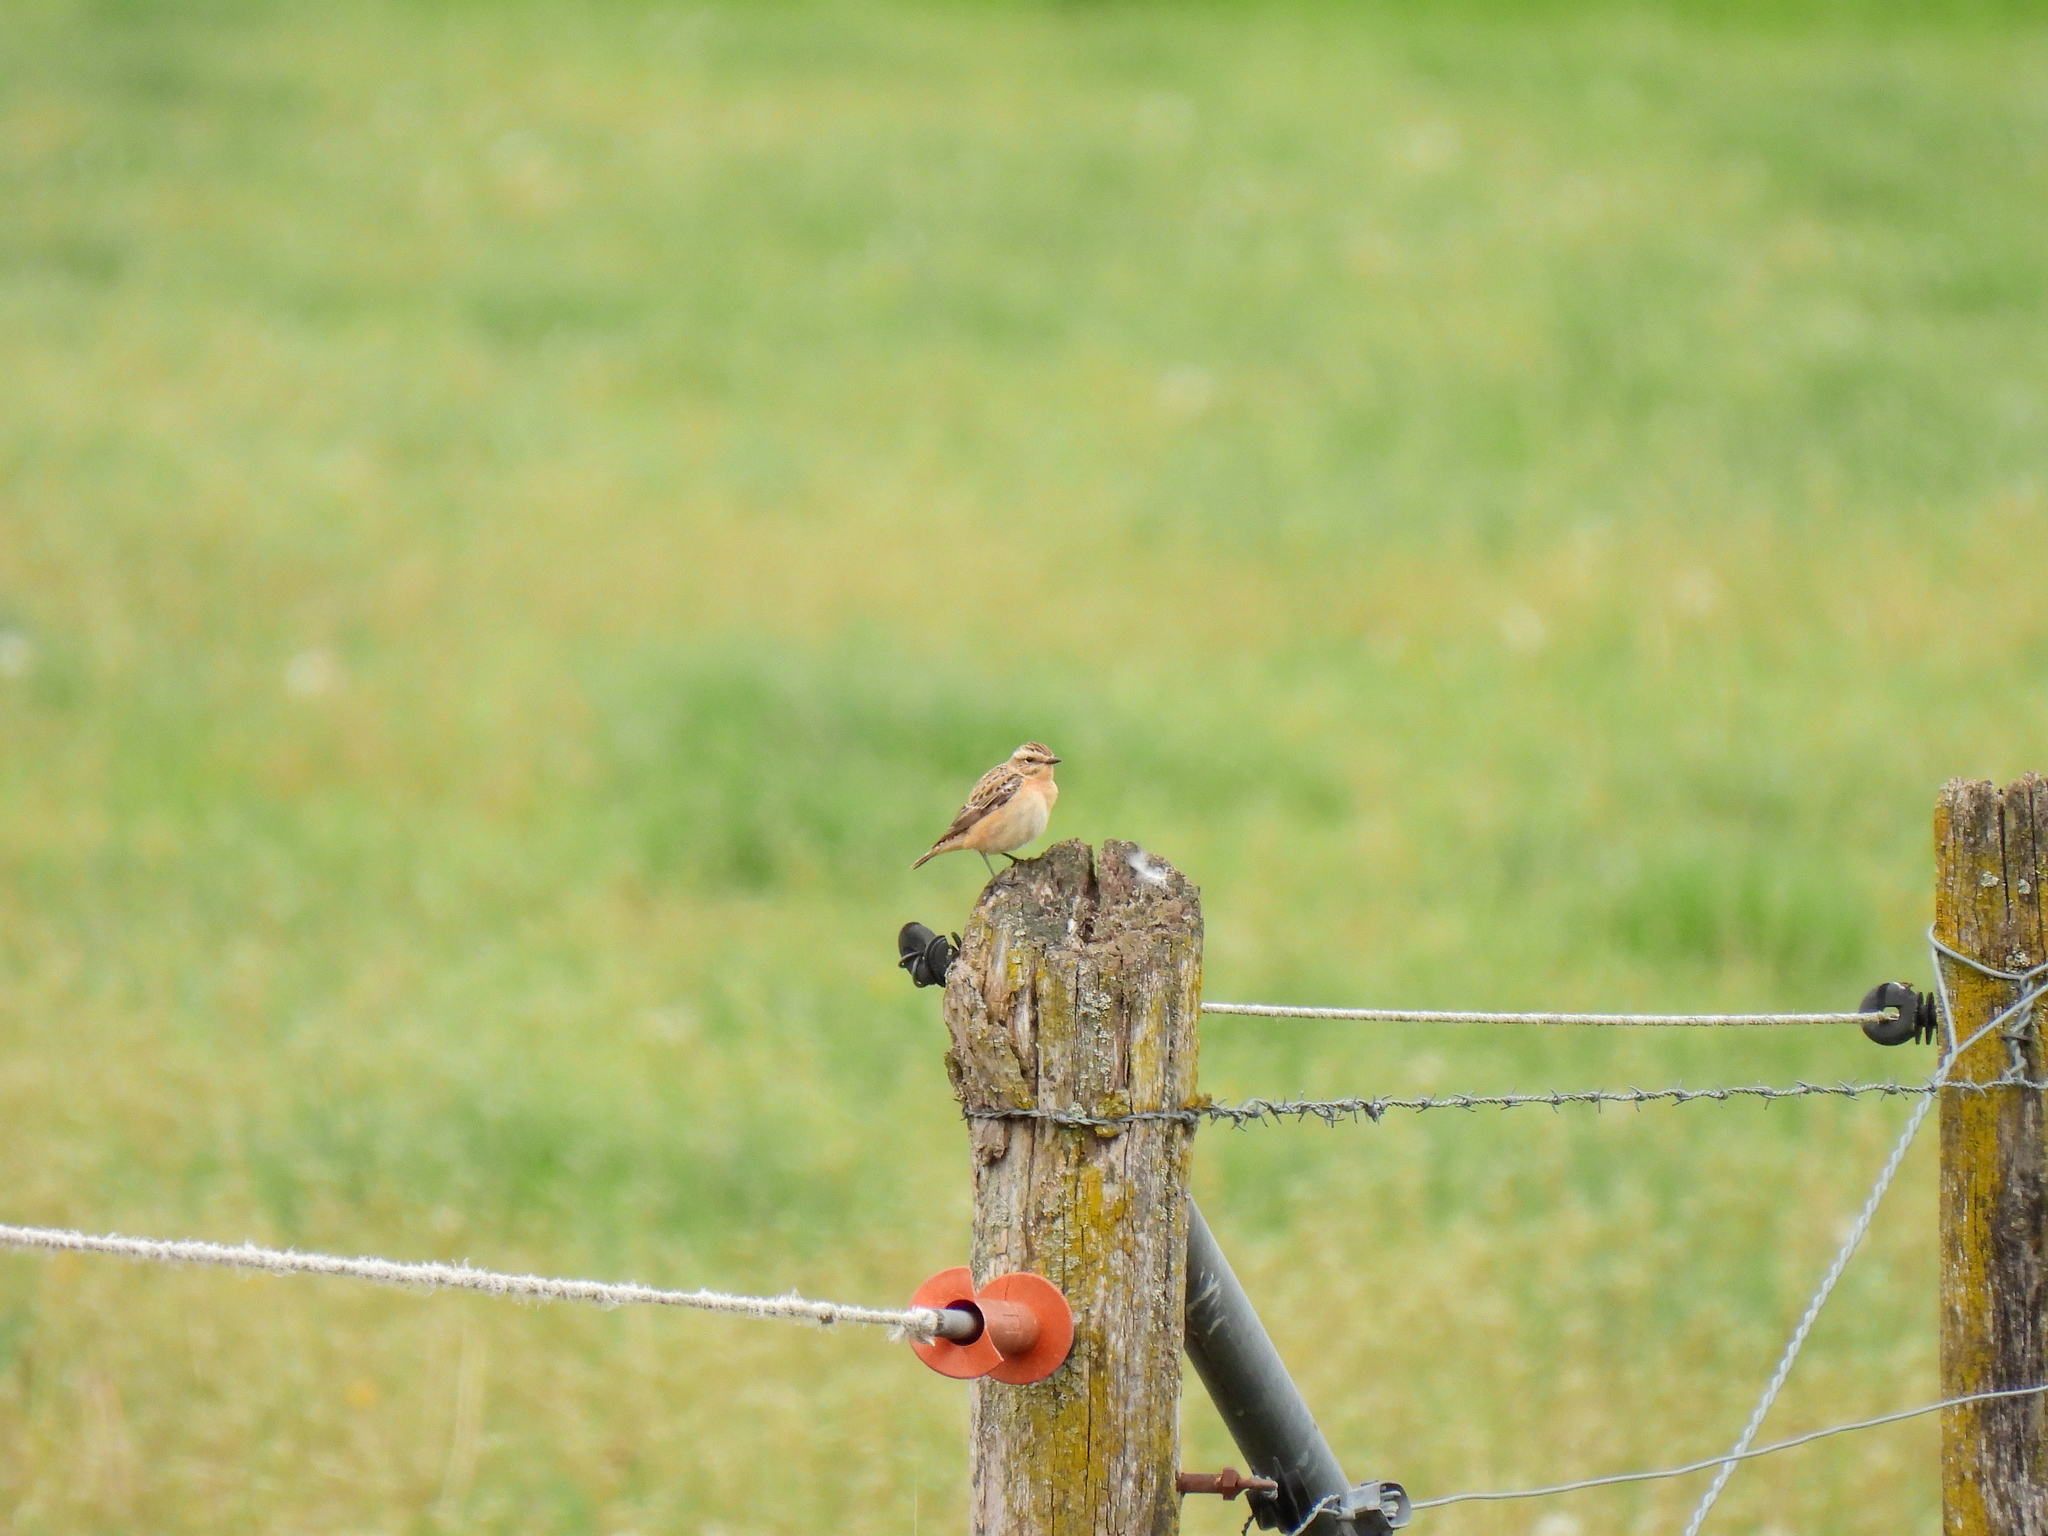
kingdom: Animalia
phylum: Chordata
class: Aves
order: Passeriformes
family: Muscicapidae
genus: Saxicola
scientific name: Saxicola rubetra
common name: Whinchat
